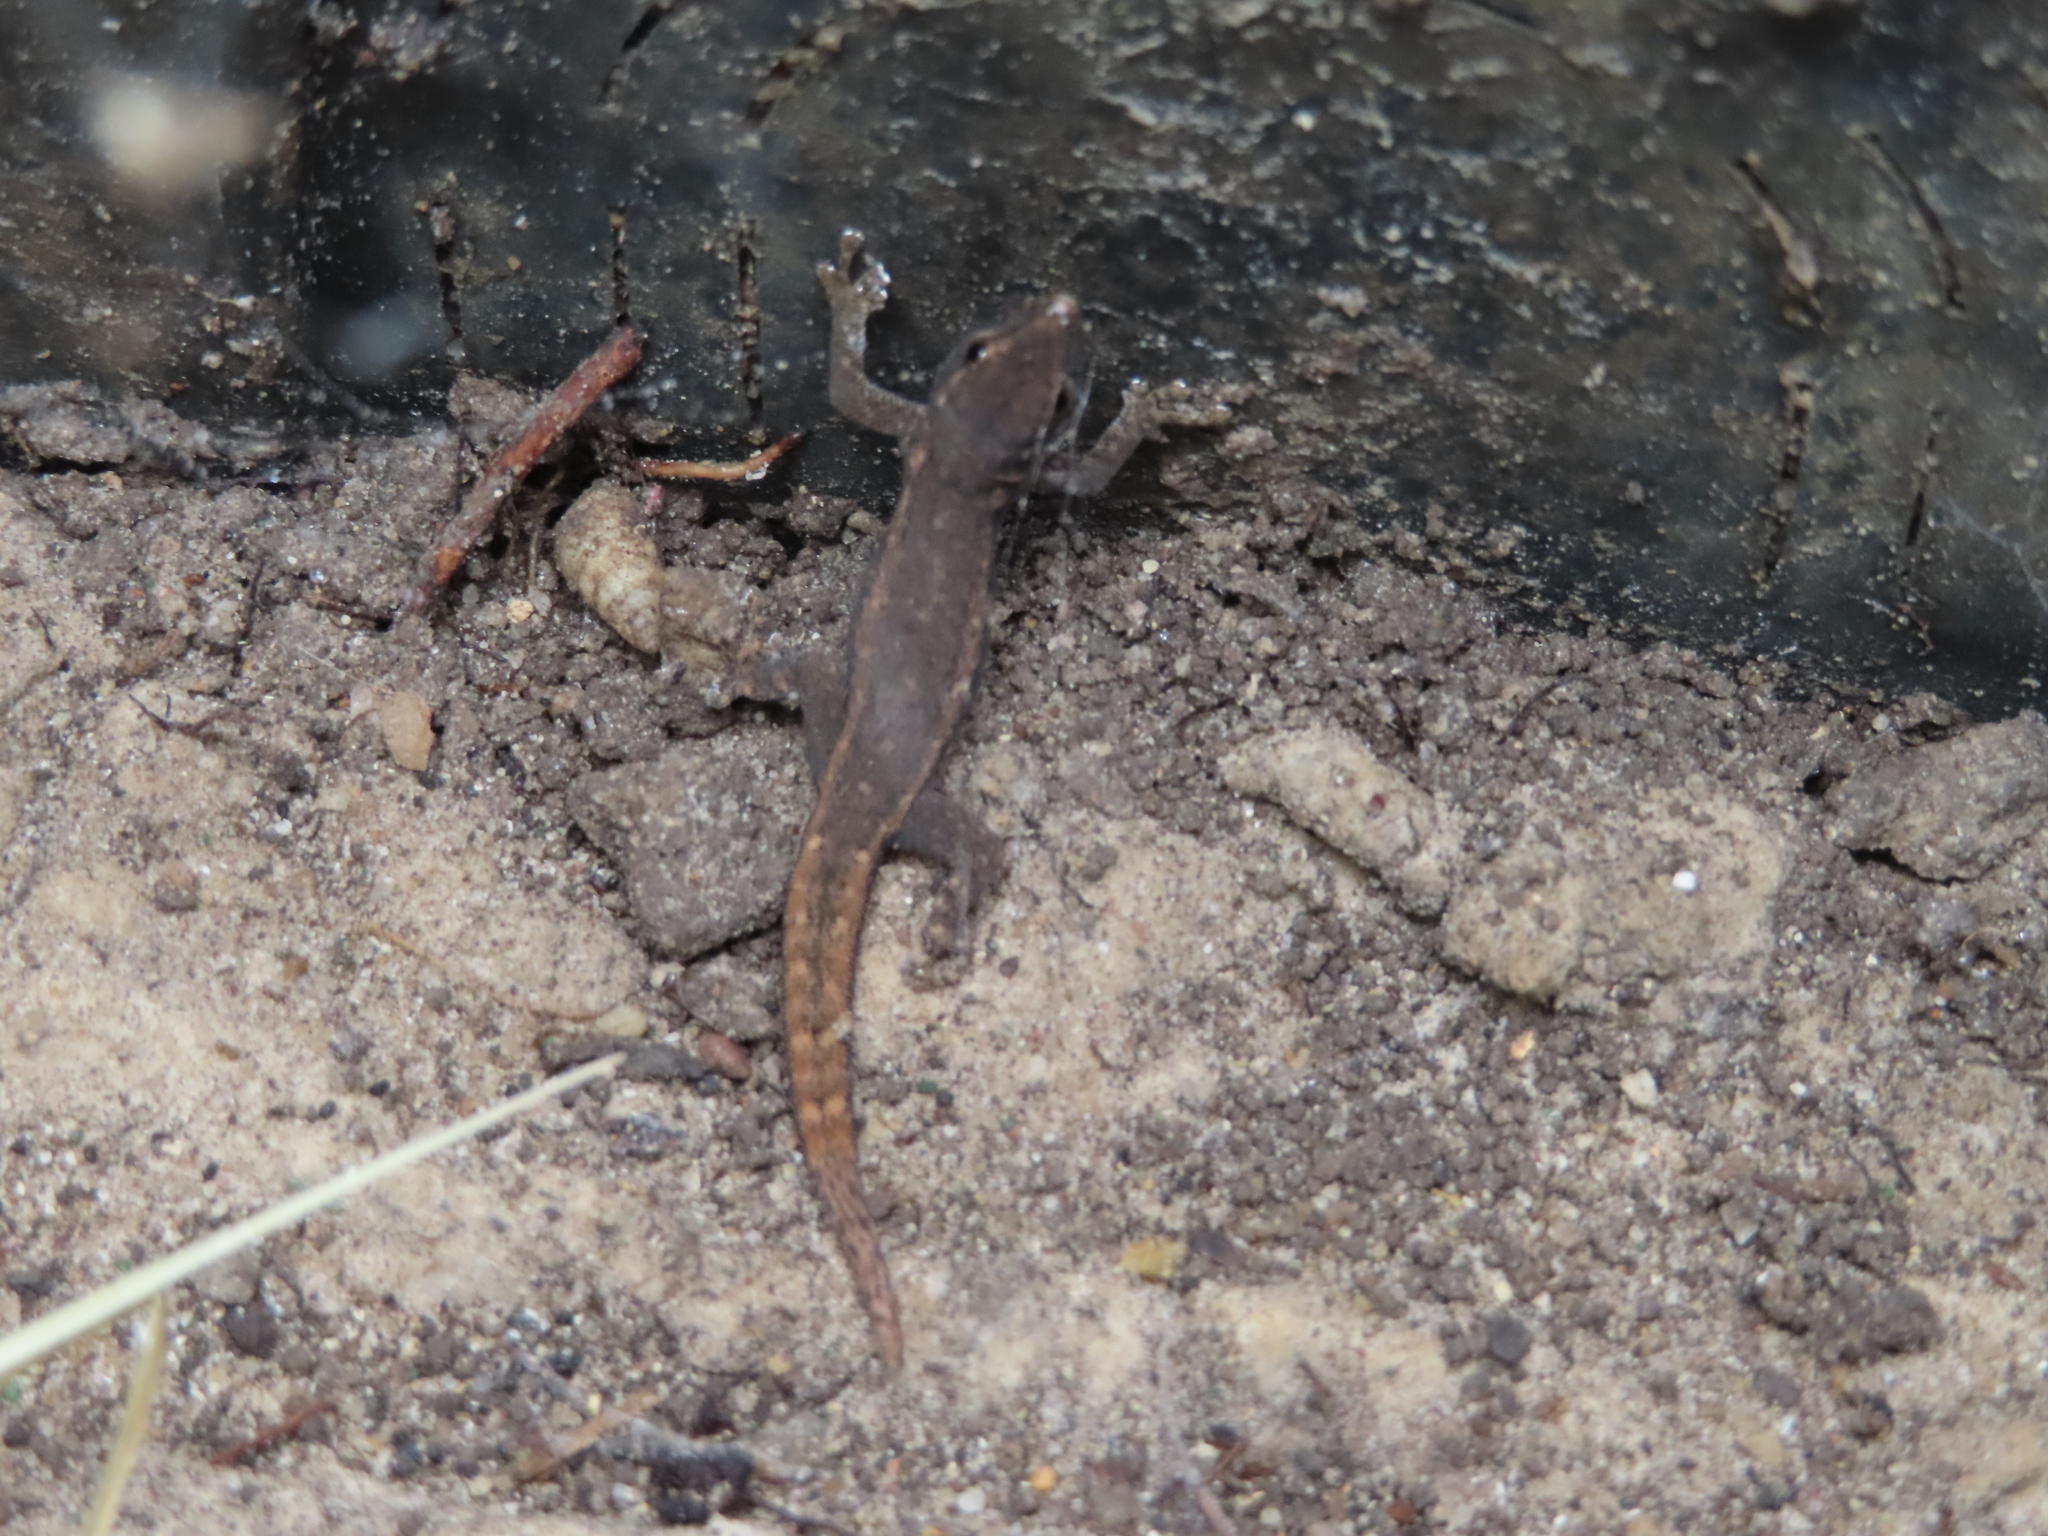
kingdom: Animalia
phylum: Chordata
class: Squamata
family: Gekkonidae
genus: Lygodactylus
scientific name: Lygodactylus capensis
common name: Cape dwarf gecko
